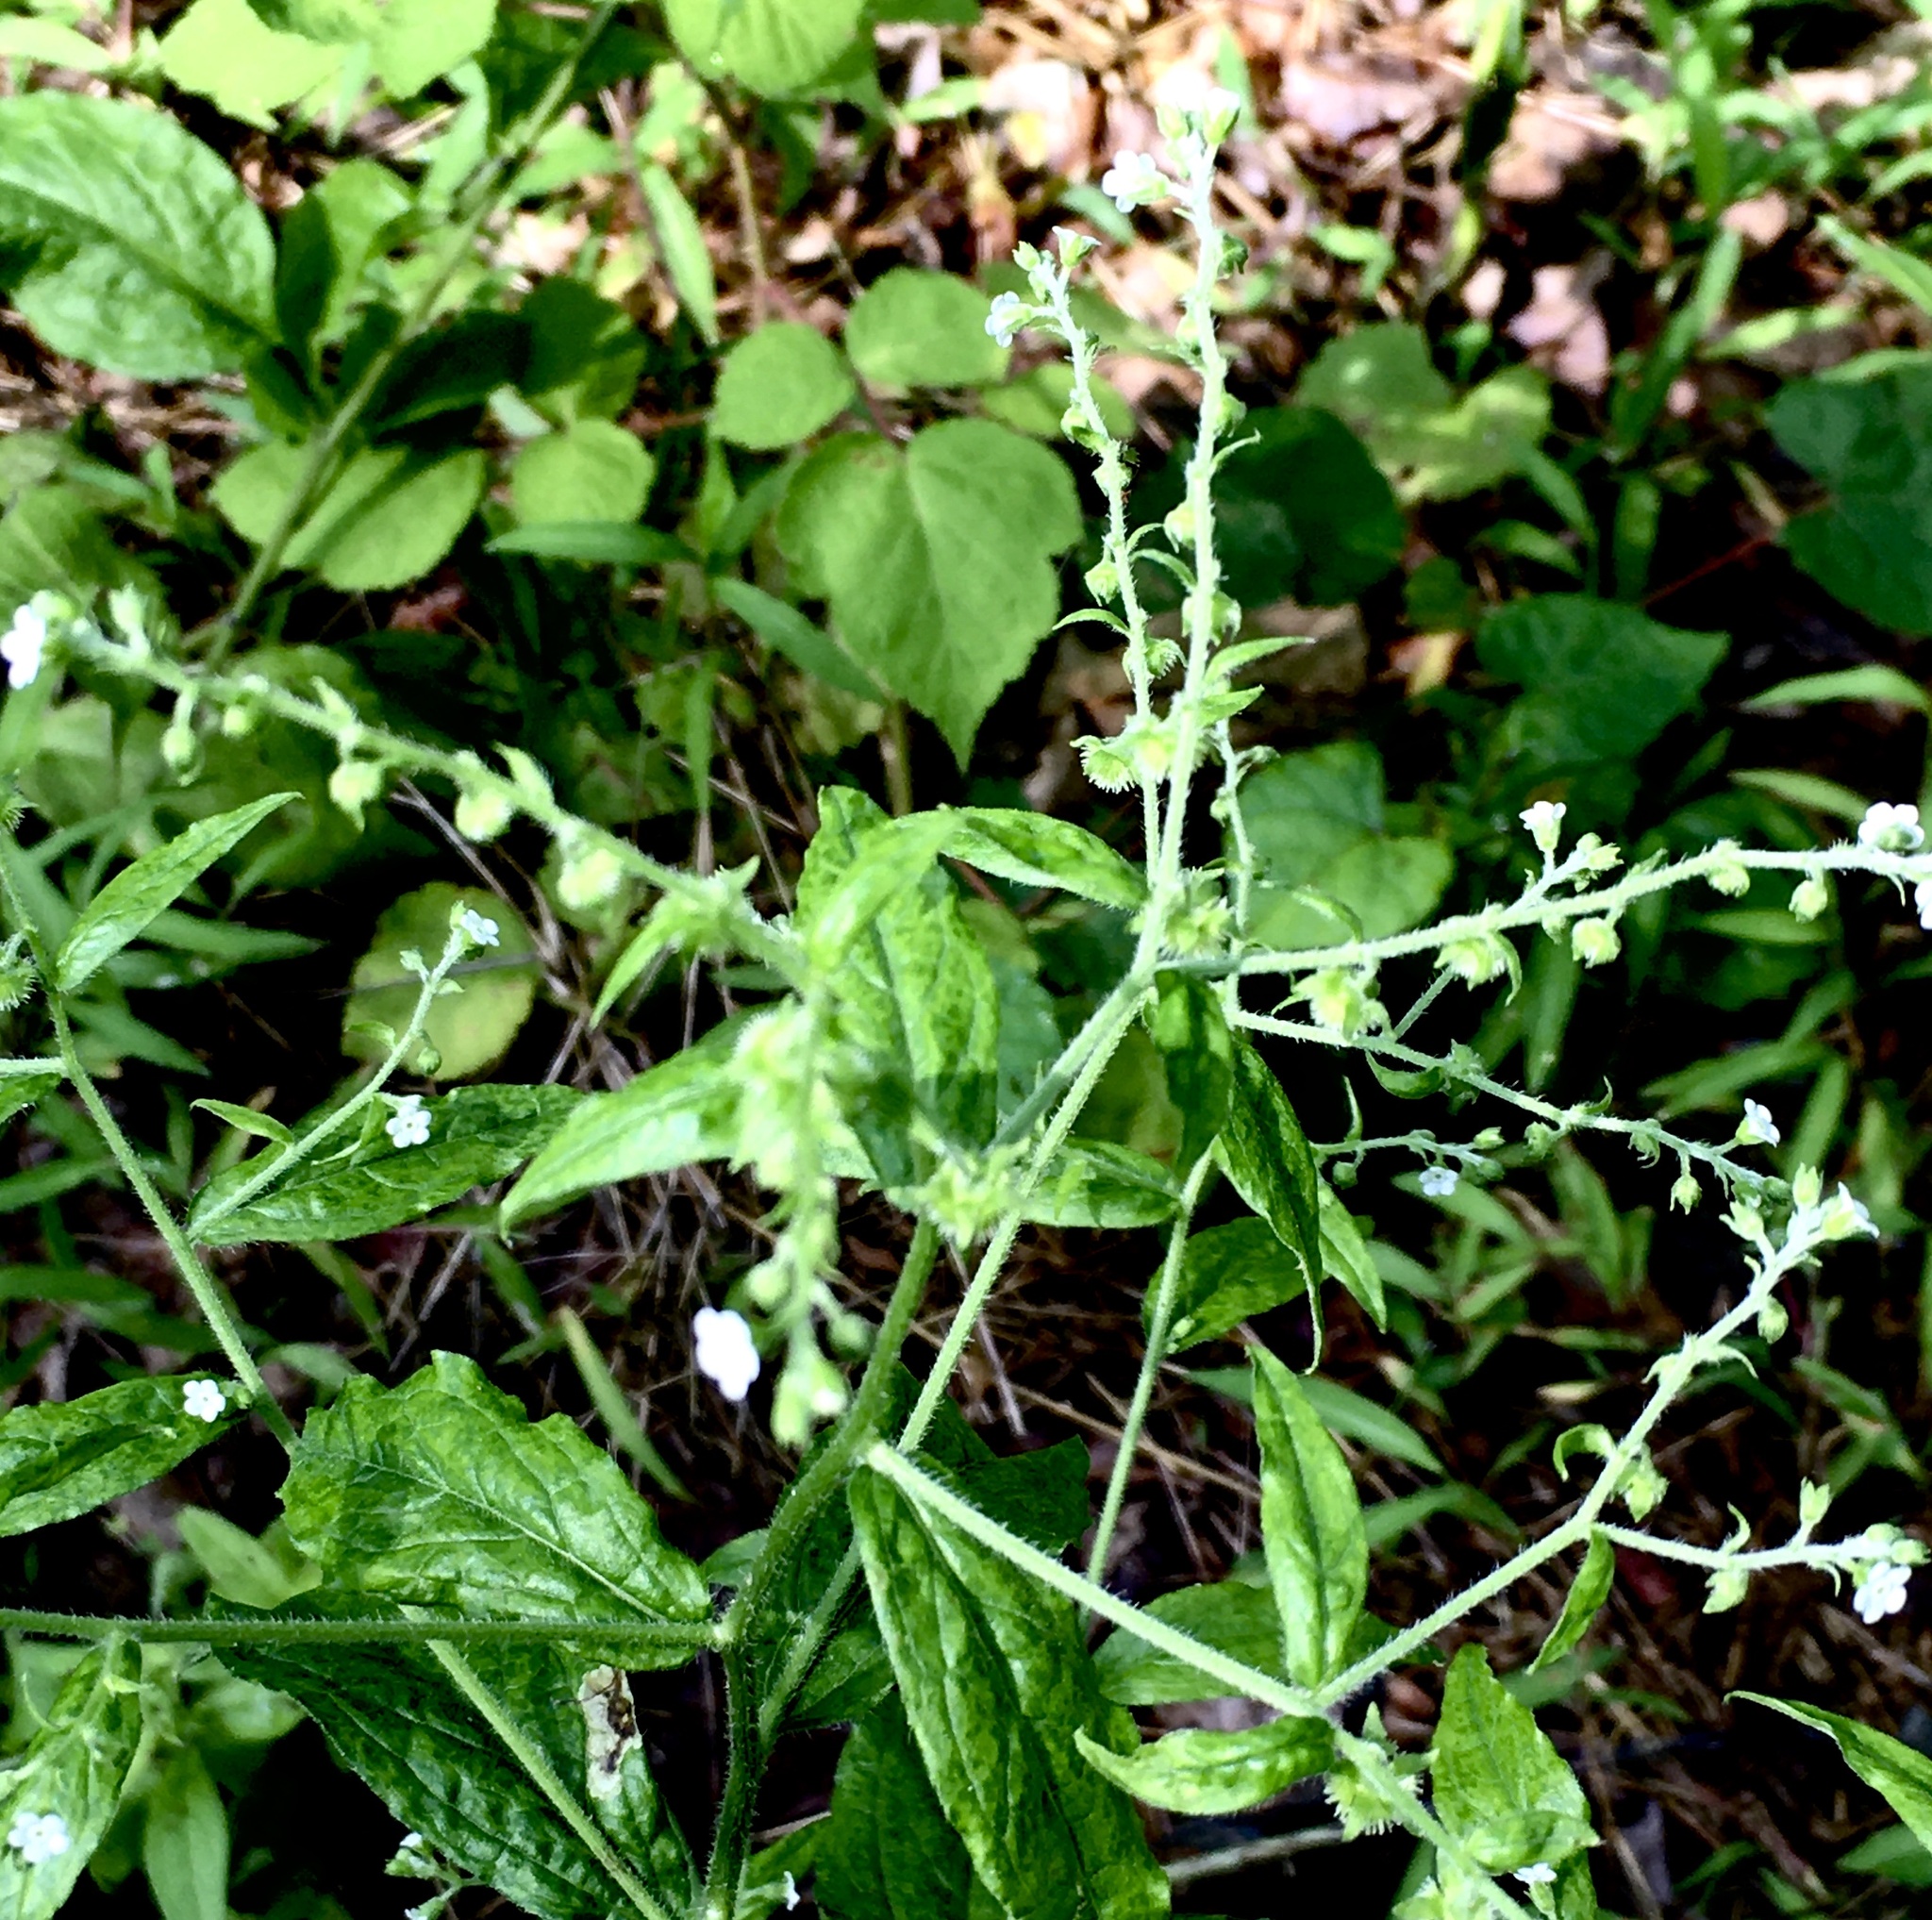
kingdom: Plantae
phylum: Tracheophyta
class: Magnoliopsida
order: Boraginales
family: Boraginaceae
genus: Hackelia
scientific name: Hackelia virginiana
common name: Beggar's-lice
